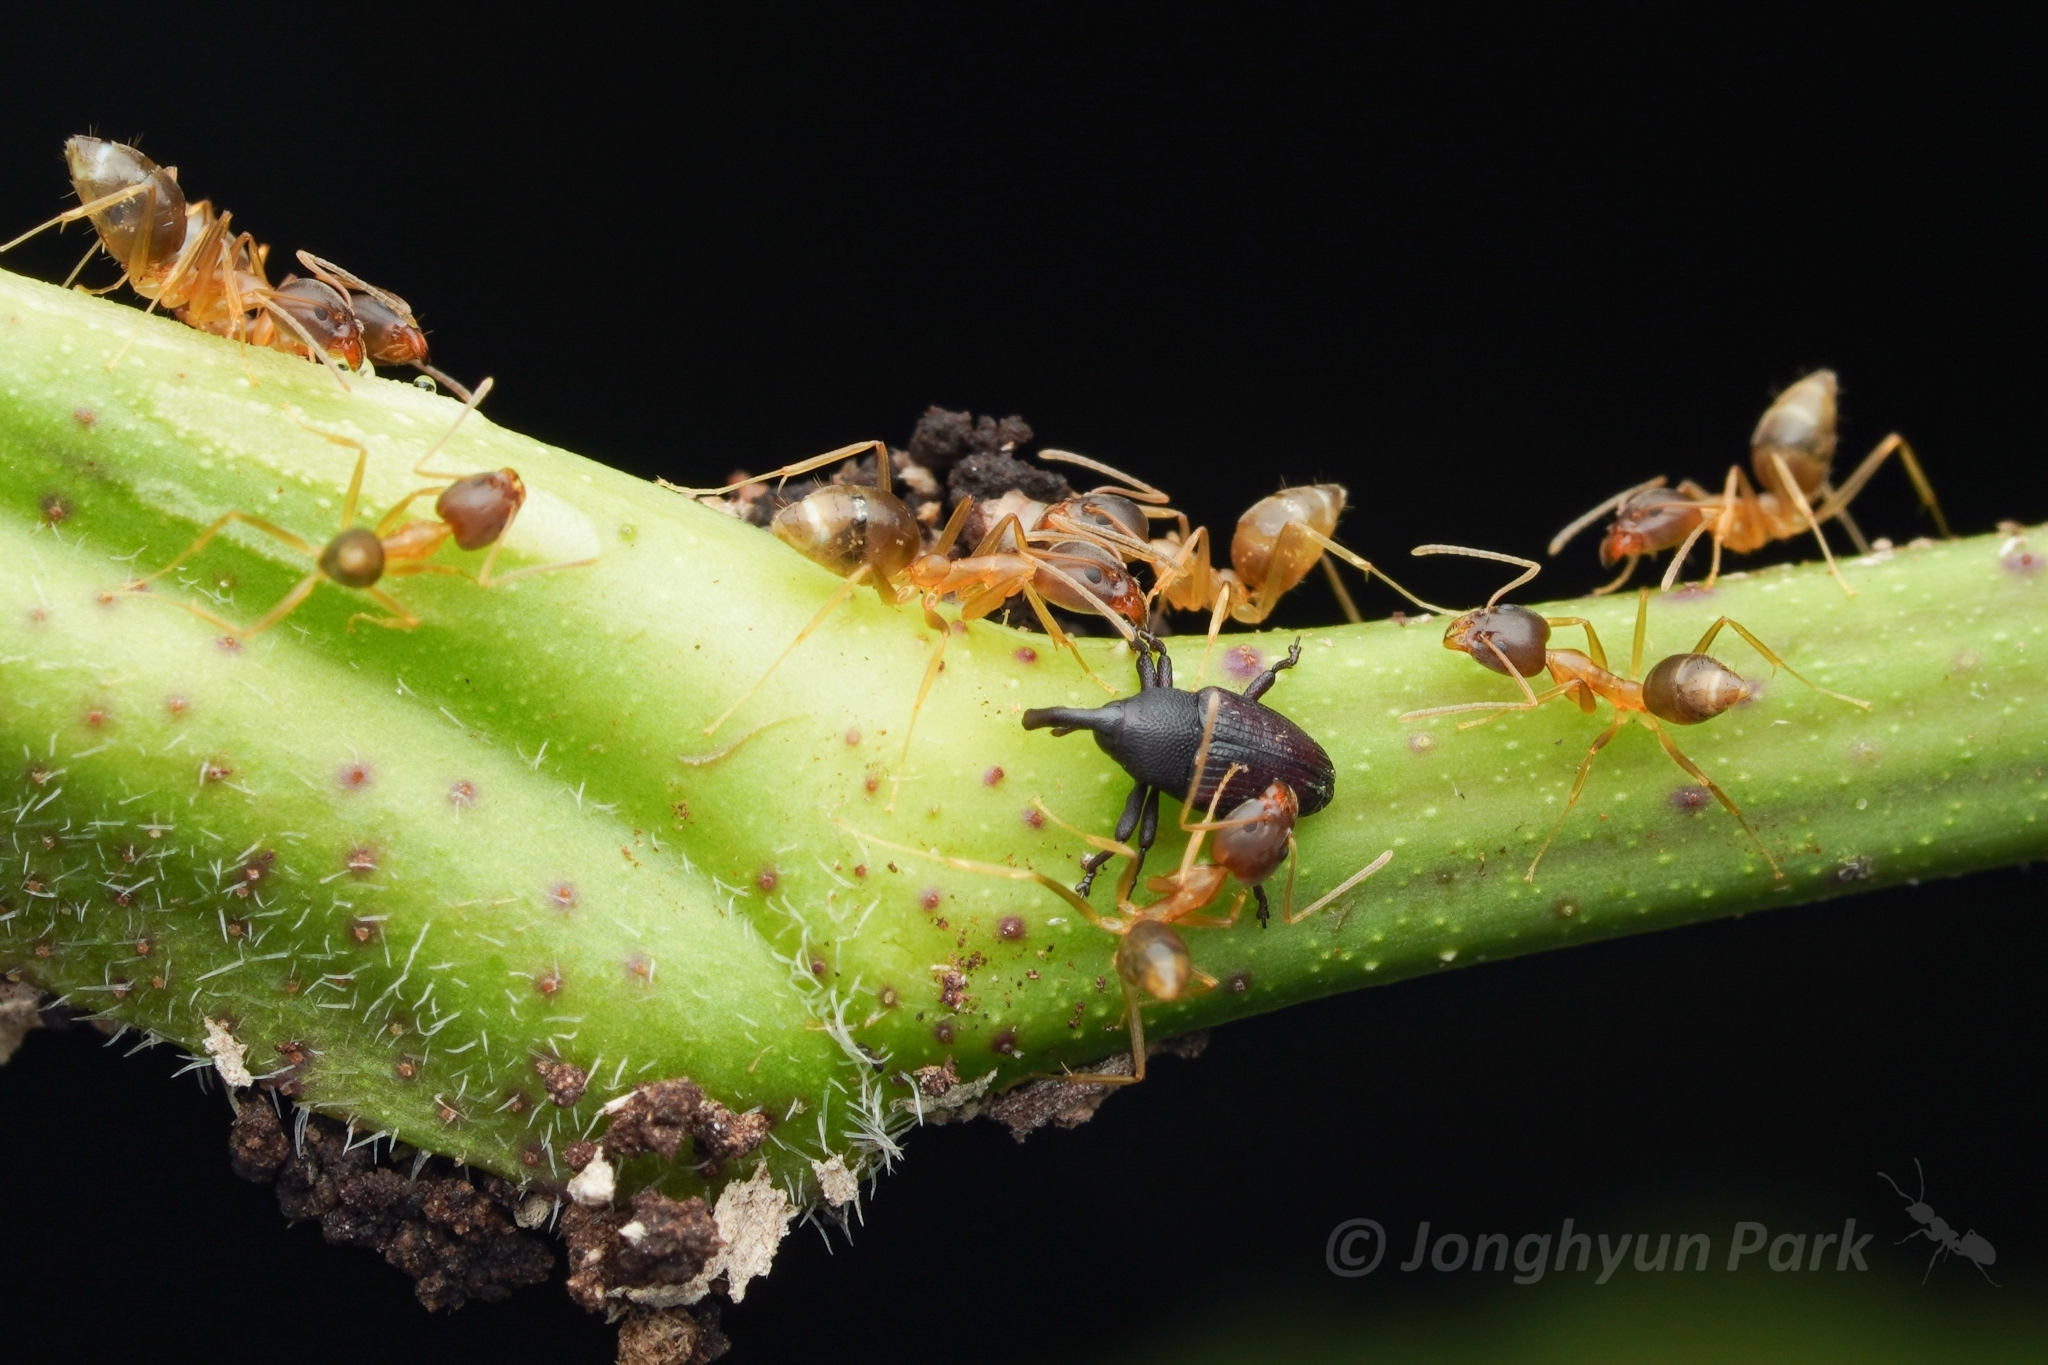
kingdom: Animalia
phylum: Arthropoda
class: Insecta
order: Hymenoptera
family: Formicidae
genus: Technomyrmex
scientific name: Technomyrmex lisae
